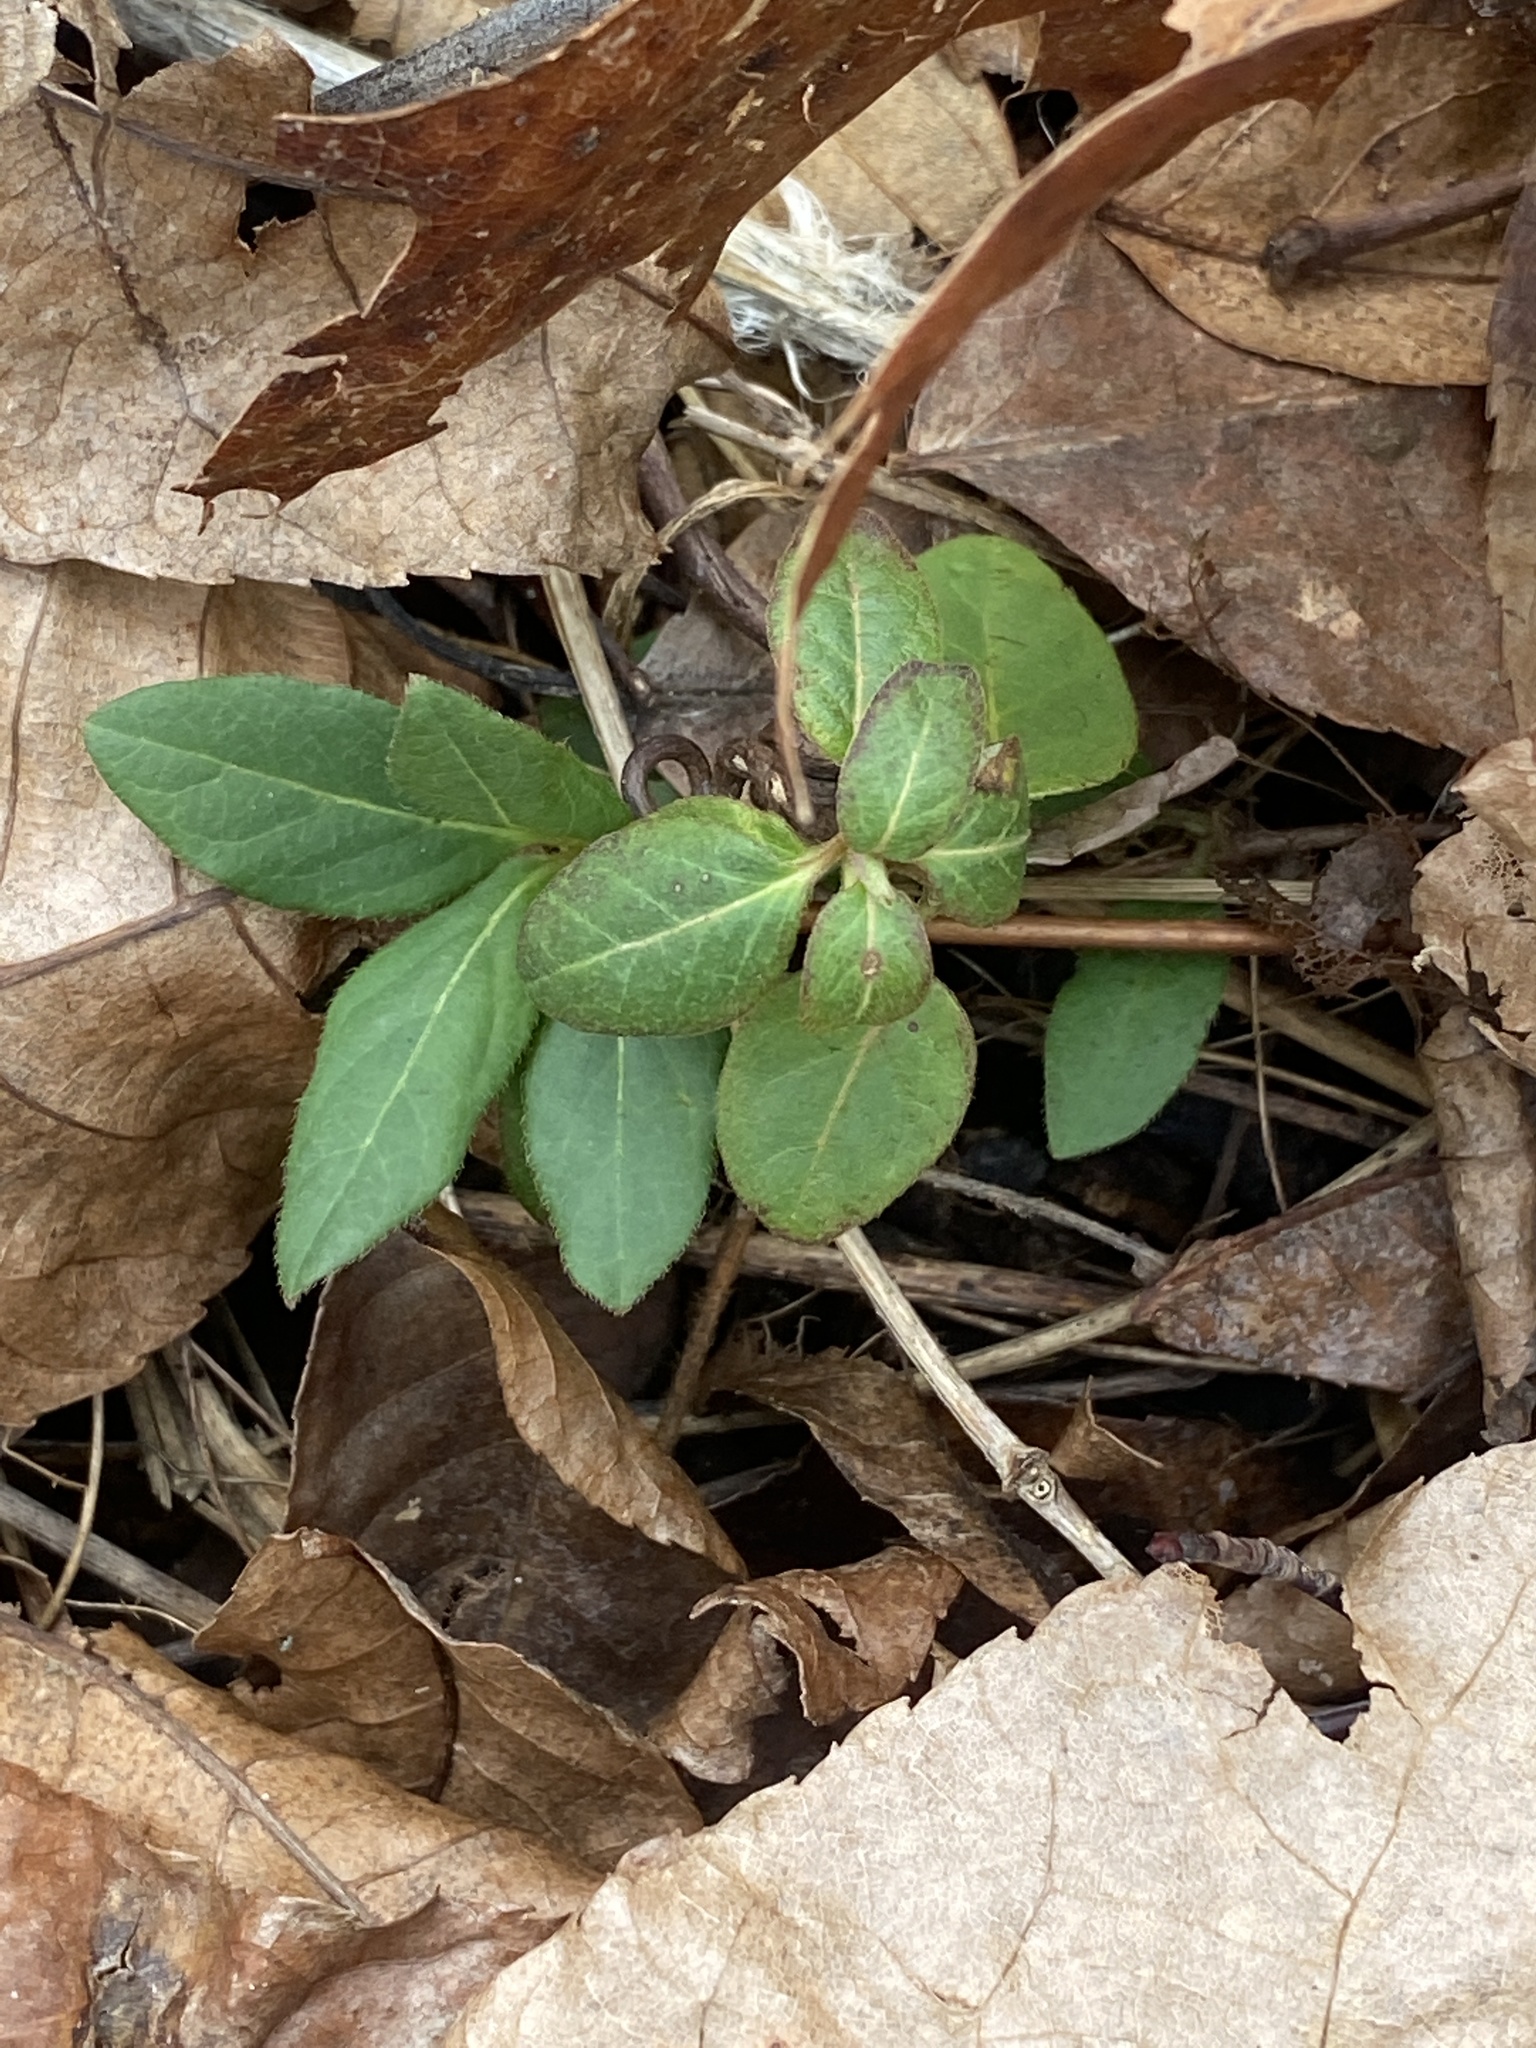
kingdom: Plantae
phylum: Tracheophyta
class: Magnoliopsida
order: Dipsacales
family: Caprifoliaceae
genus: Lonicera
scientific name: Lonicera japonica
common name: Japanese honeysuckle
